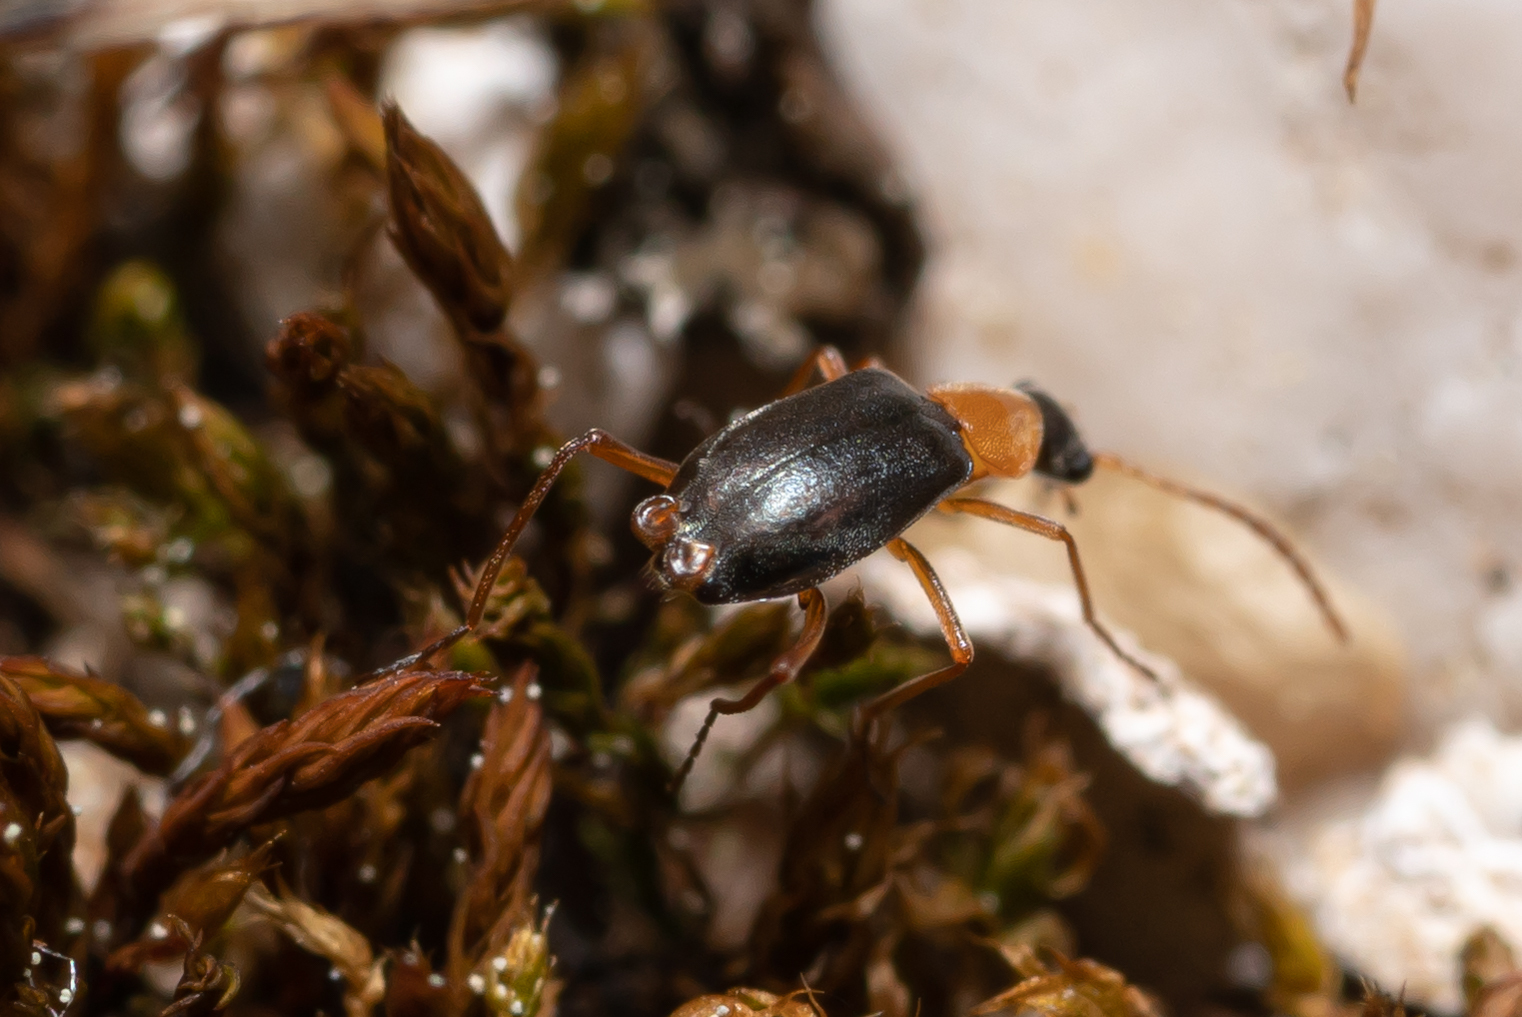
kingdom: Animalia
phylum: Arthropoda
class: Insecta
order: Coleoptera
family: Melyridae
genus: Hypebaeus
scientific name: Hypebaeus nodipennis
